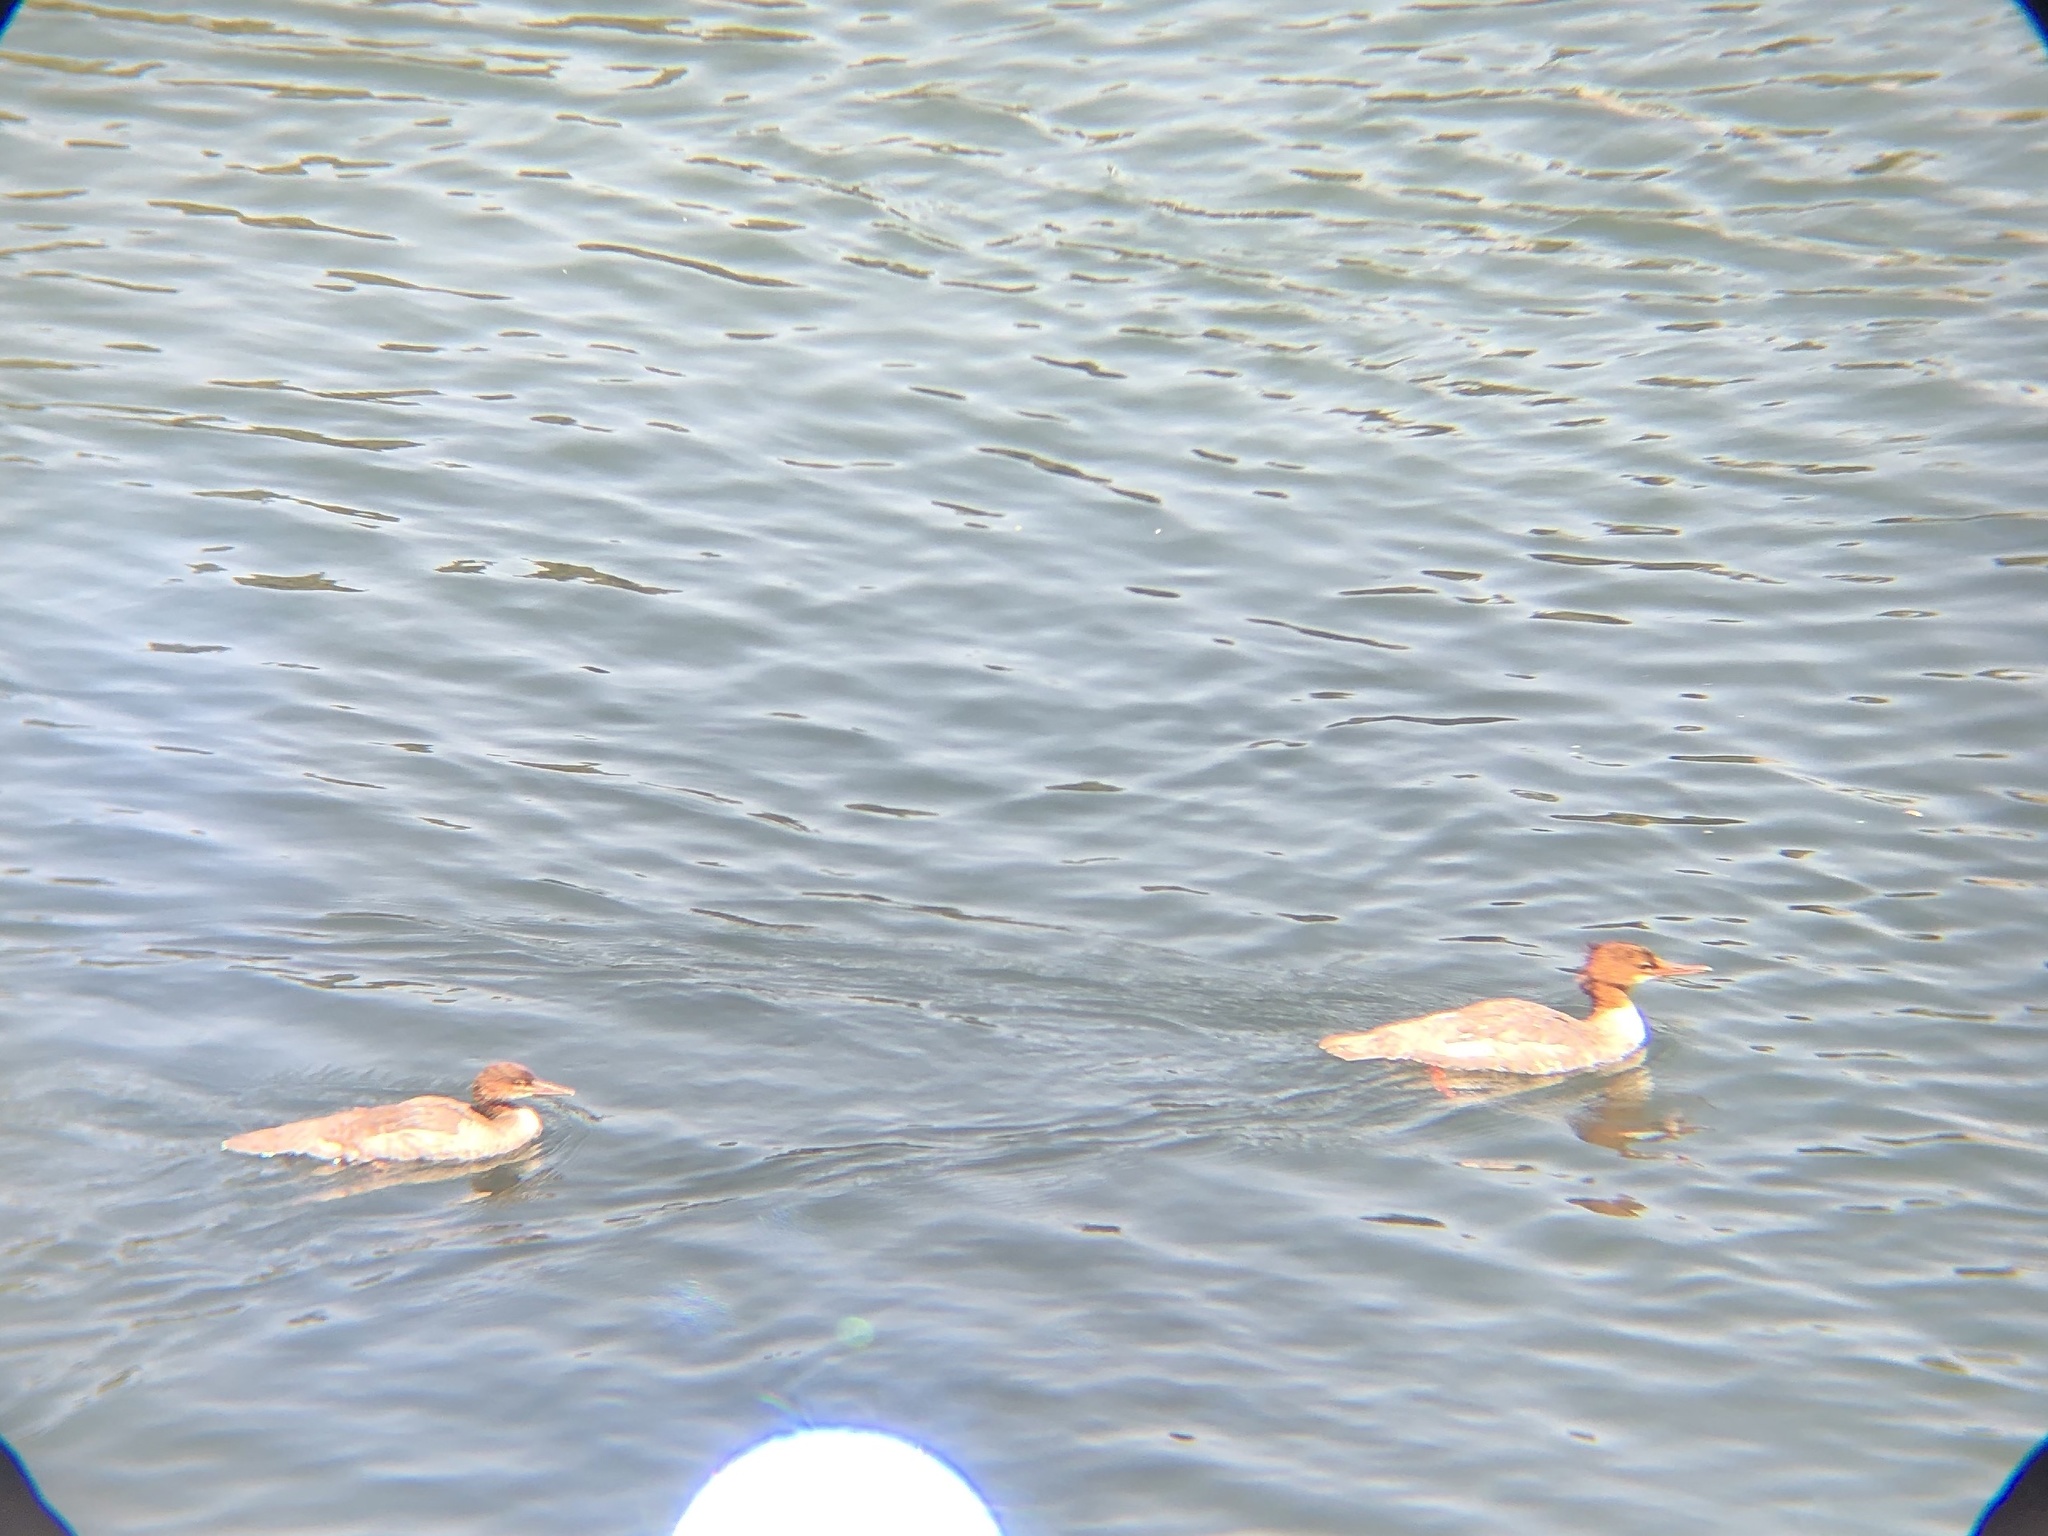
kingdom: Animalia
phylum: Chordata
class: Aves
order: Anseriformes
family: Anatidae
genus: Mergus
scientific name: Mergus merganser
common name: Common merganser
